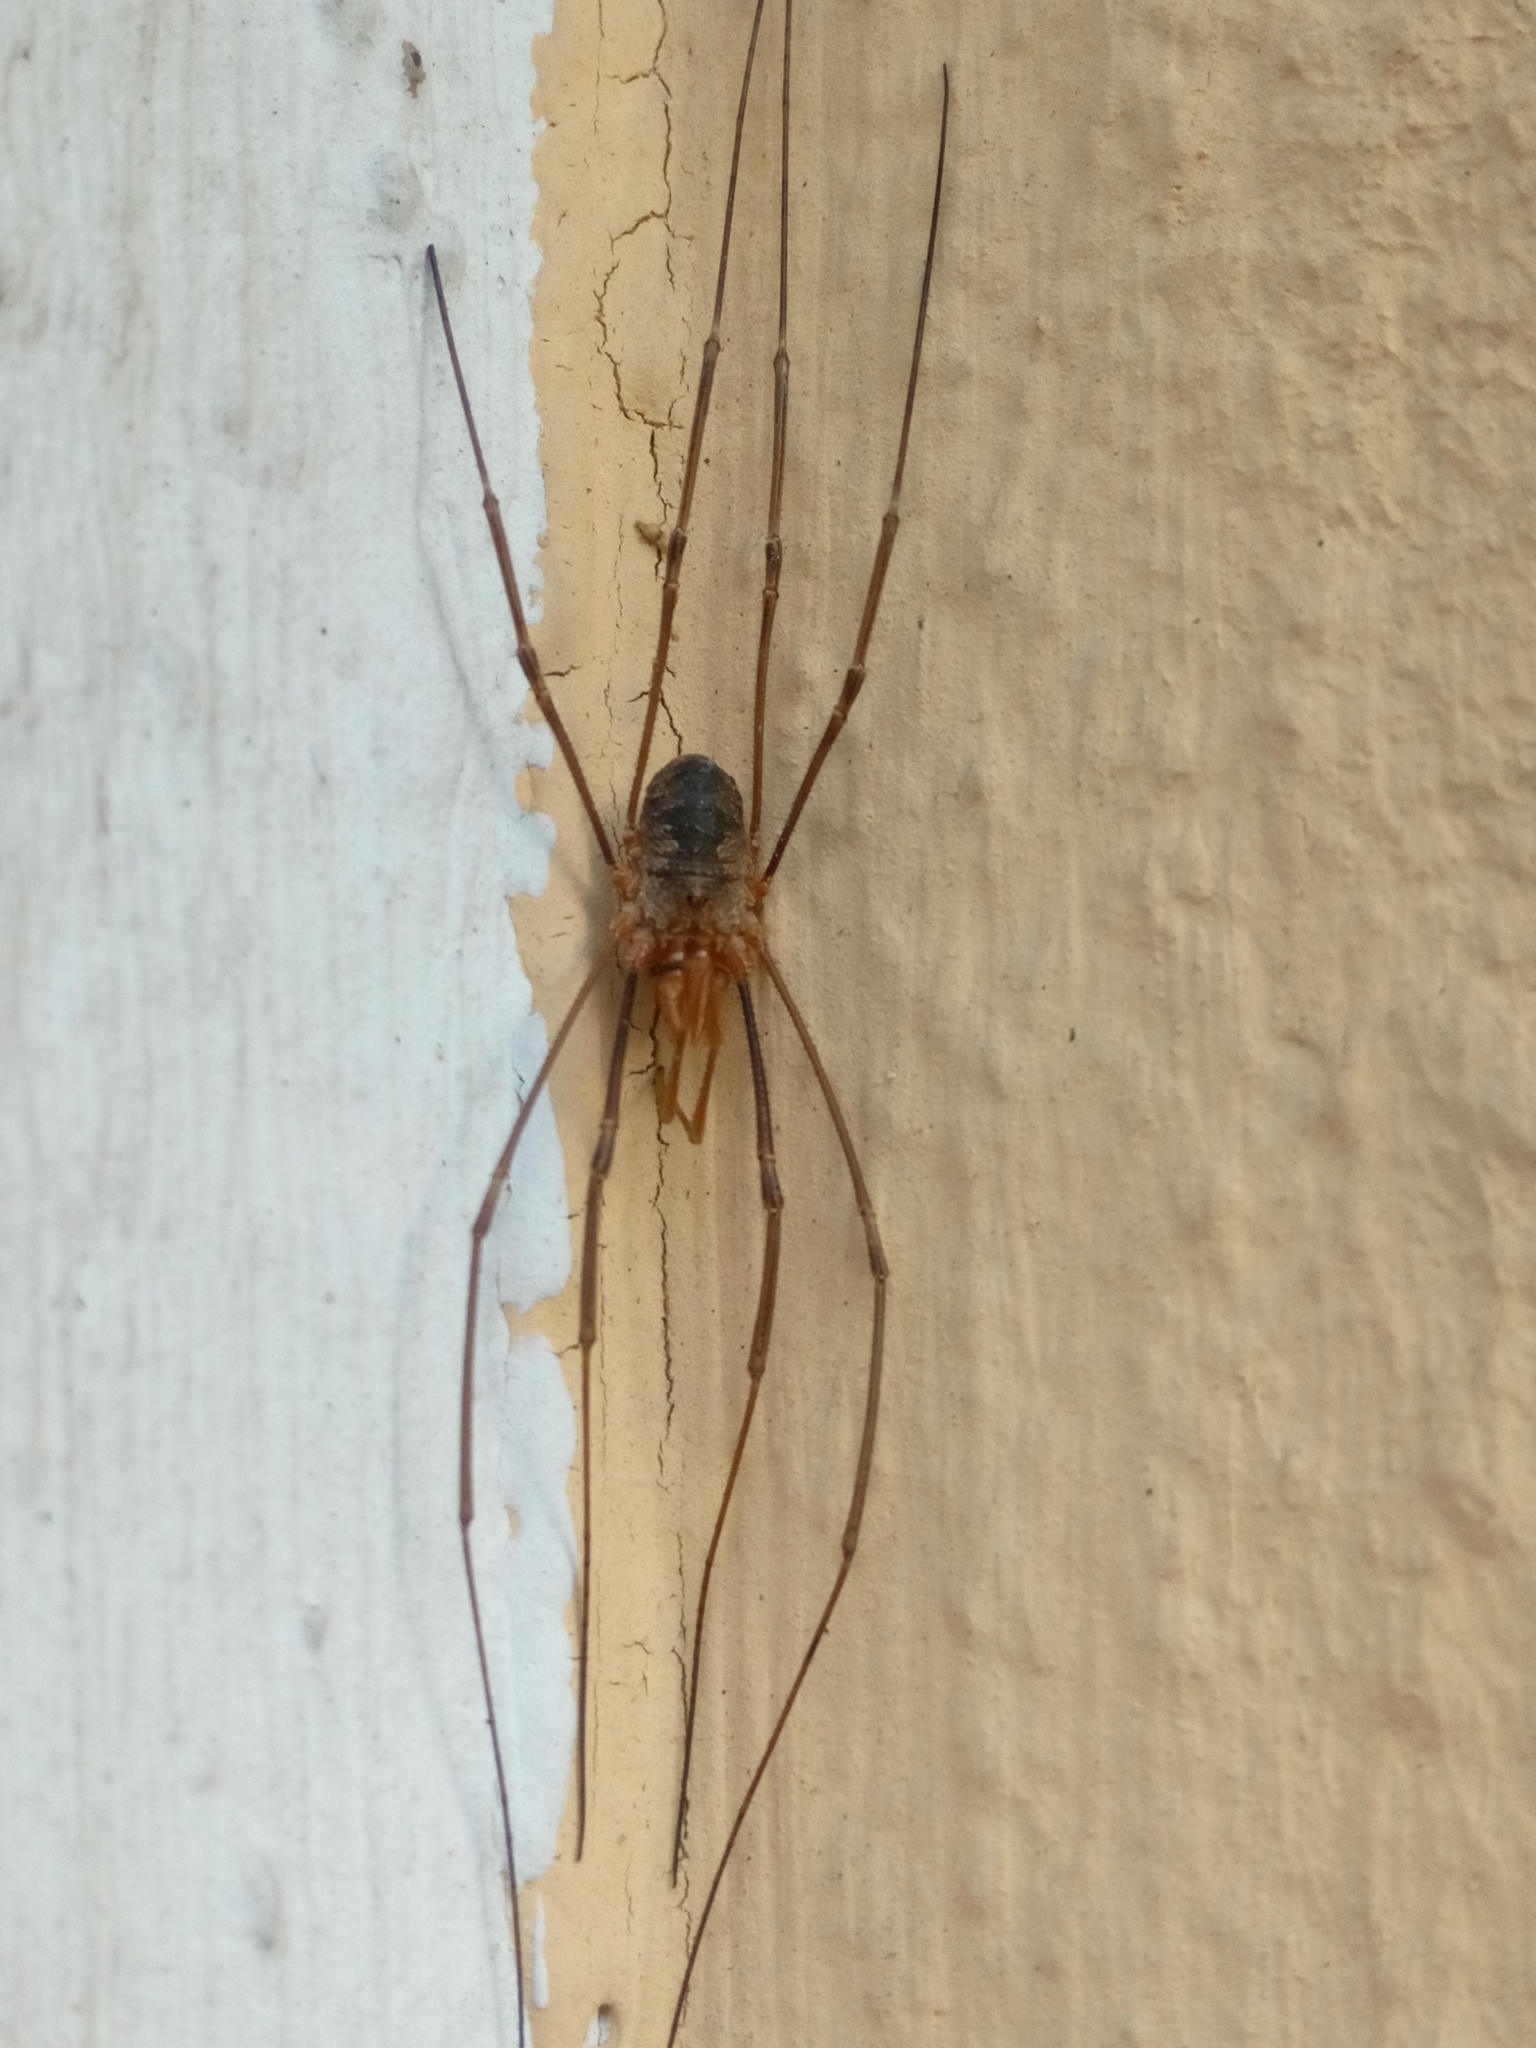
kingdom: Animalia
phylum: Arthropoda
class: Arachnida
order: Opiliones
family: Phalangiidae
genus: Phalangium
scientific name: Phalangium opilio
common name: Daddy longleg
